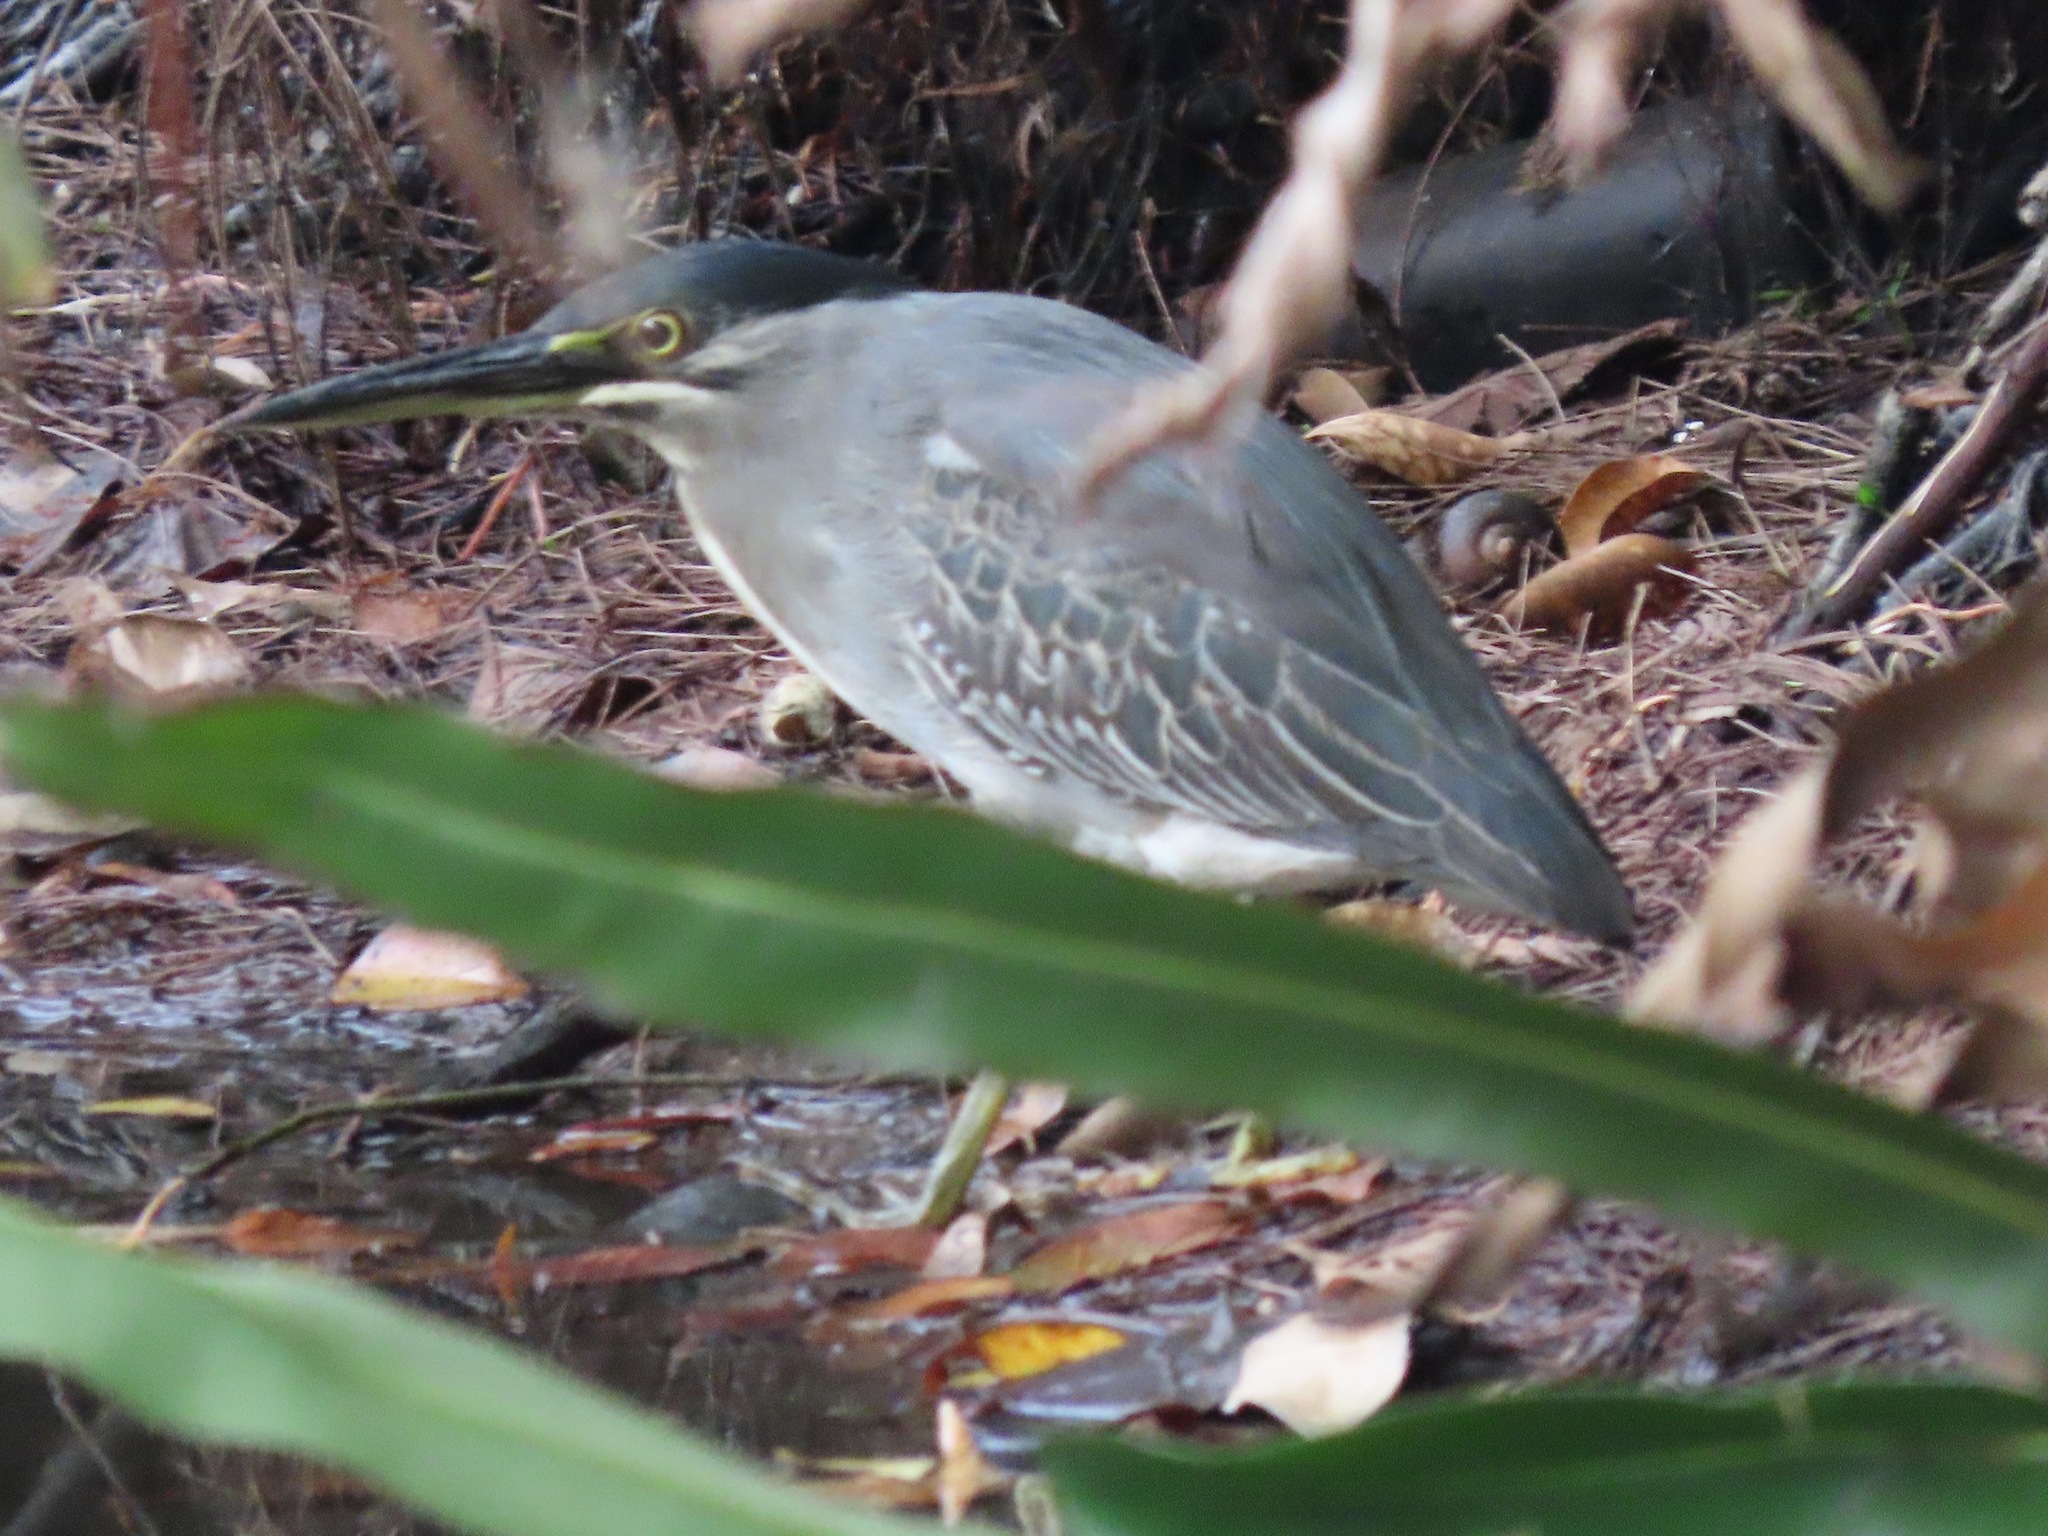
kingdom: Animalia
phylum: Chordata
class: Aves
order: Pelecaniformes
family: Ardeidae
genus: Butorides
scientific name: Butorides striata
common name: Striated heron
